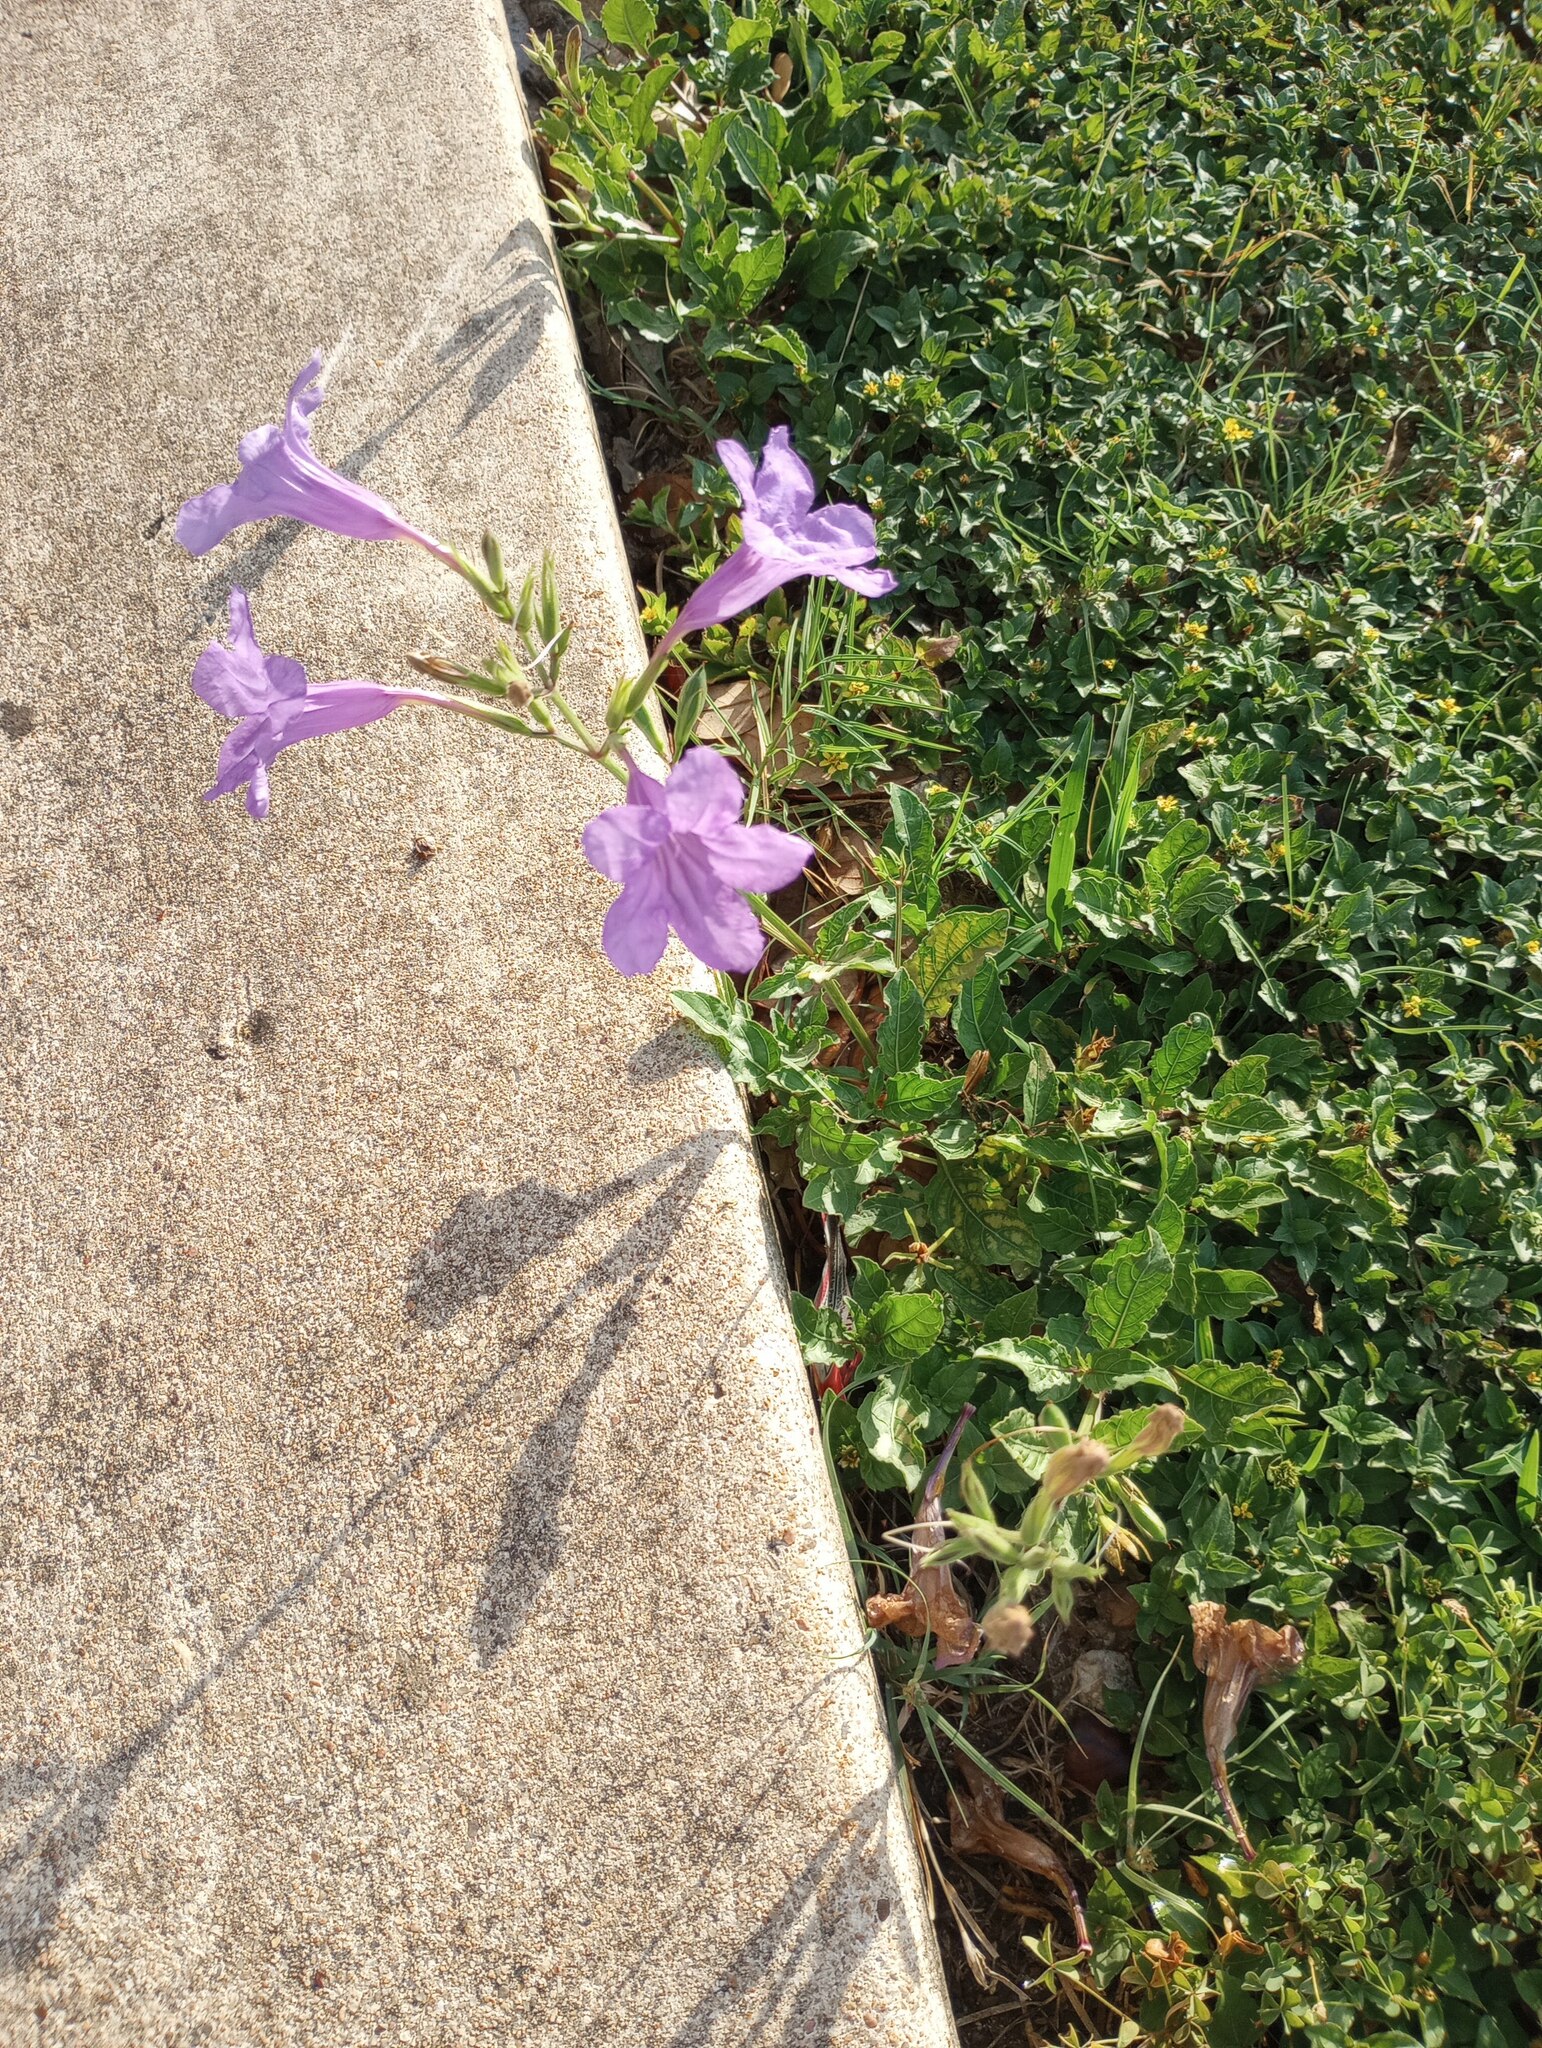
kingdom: Plantae
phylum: Tracheophyta
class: Magnoliopsida
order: Lamiales
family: Acanthaceae
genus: Ruellia
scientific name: Ruellia ciliatiflora
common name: Hairyflower wild petunia
